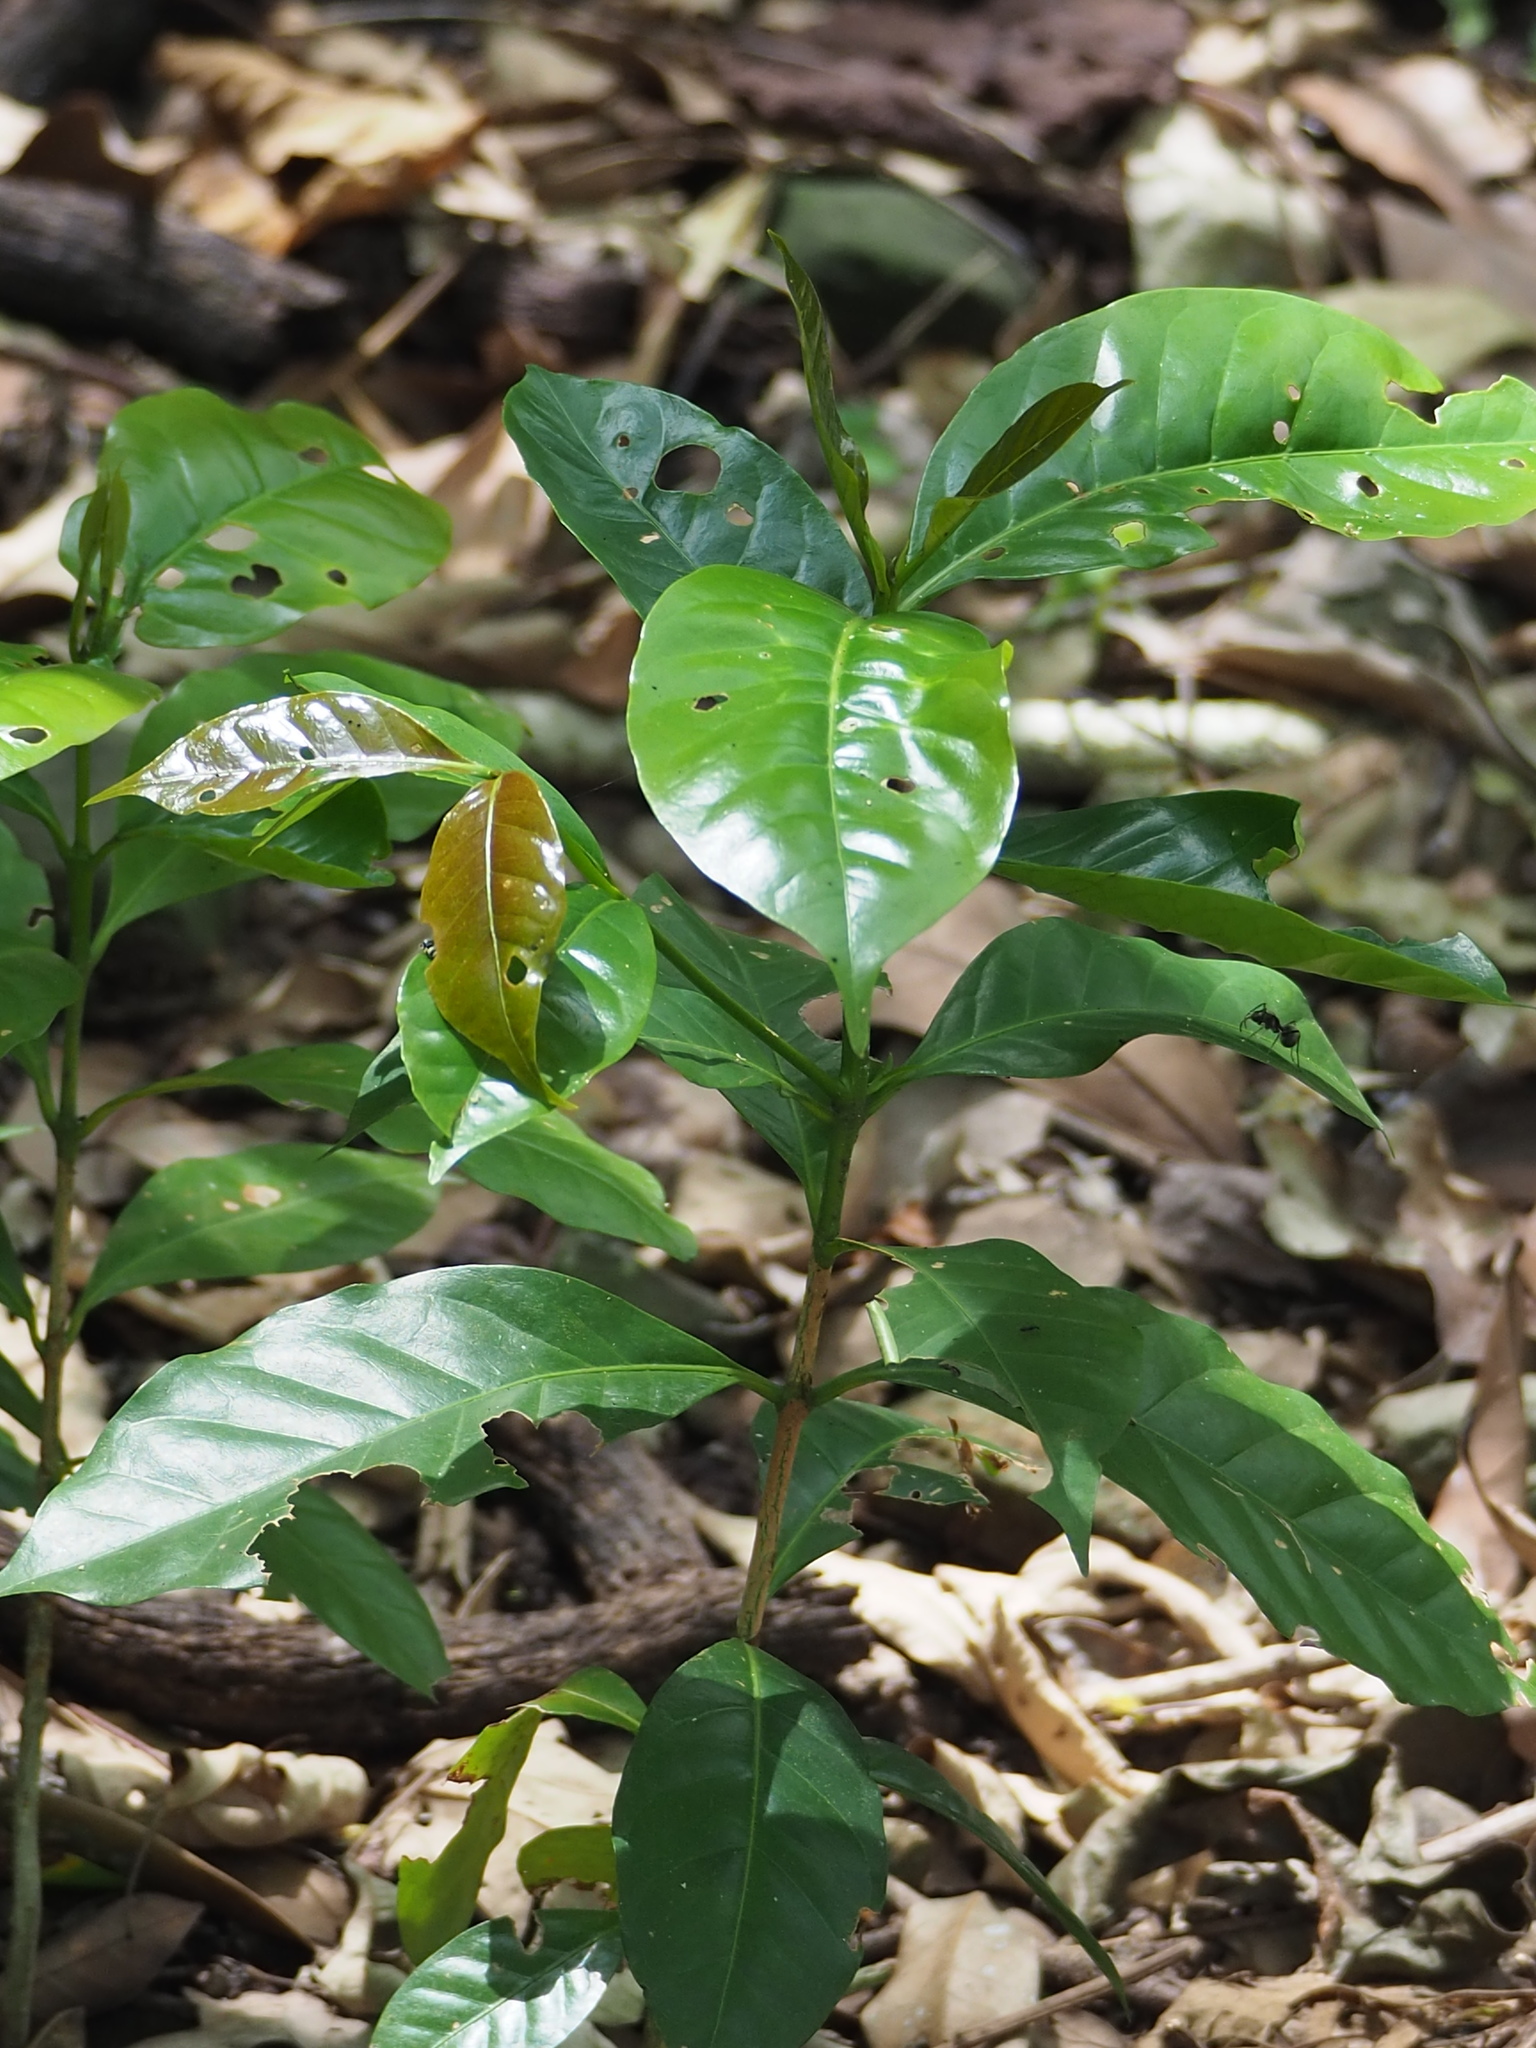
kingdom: Plantae
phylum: Tracheophyta
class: Magnoliopsida
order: Gentianales
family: Rubiaceae
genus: Coffea
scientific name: Coffea arabica
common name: Coffee
